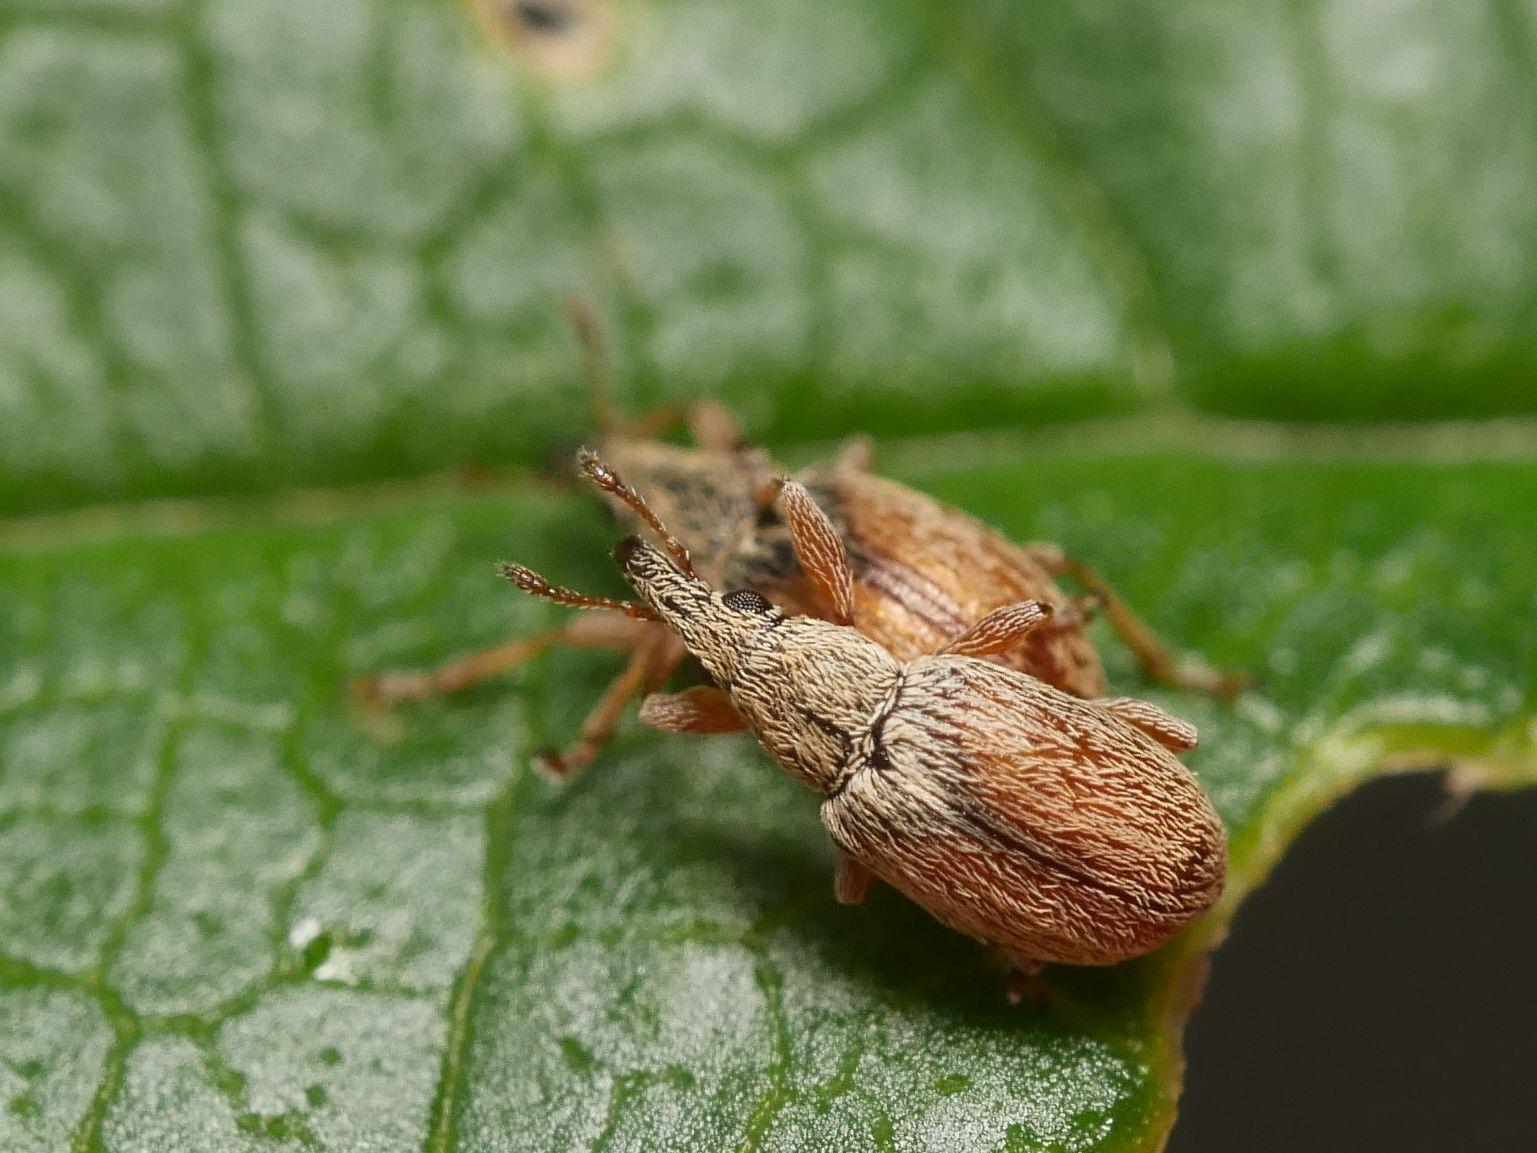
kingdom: Animalia
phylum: Arthropoda
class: Insecta
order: Coleoptera
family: Apionidae
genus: Malvapion
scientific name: Malvapion malvae
